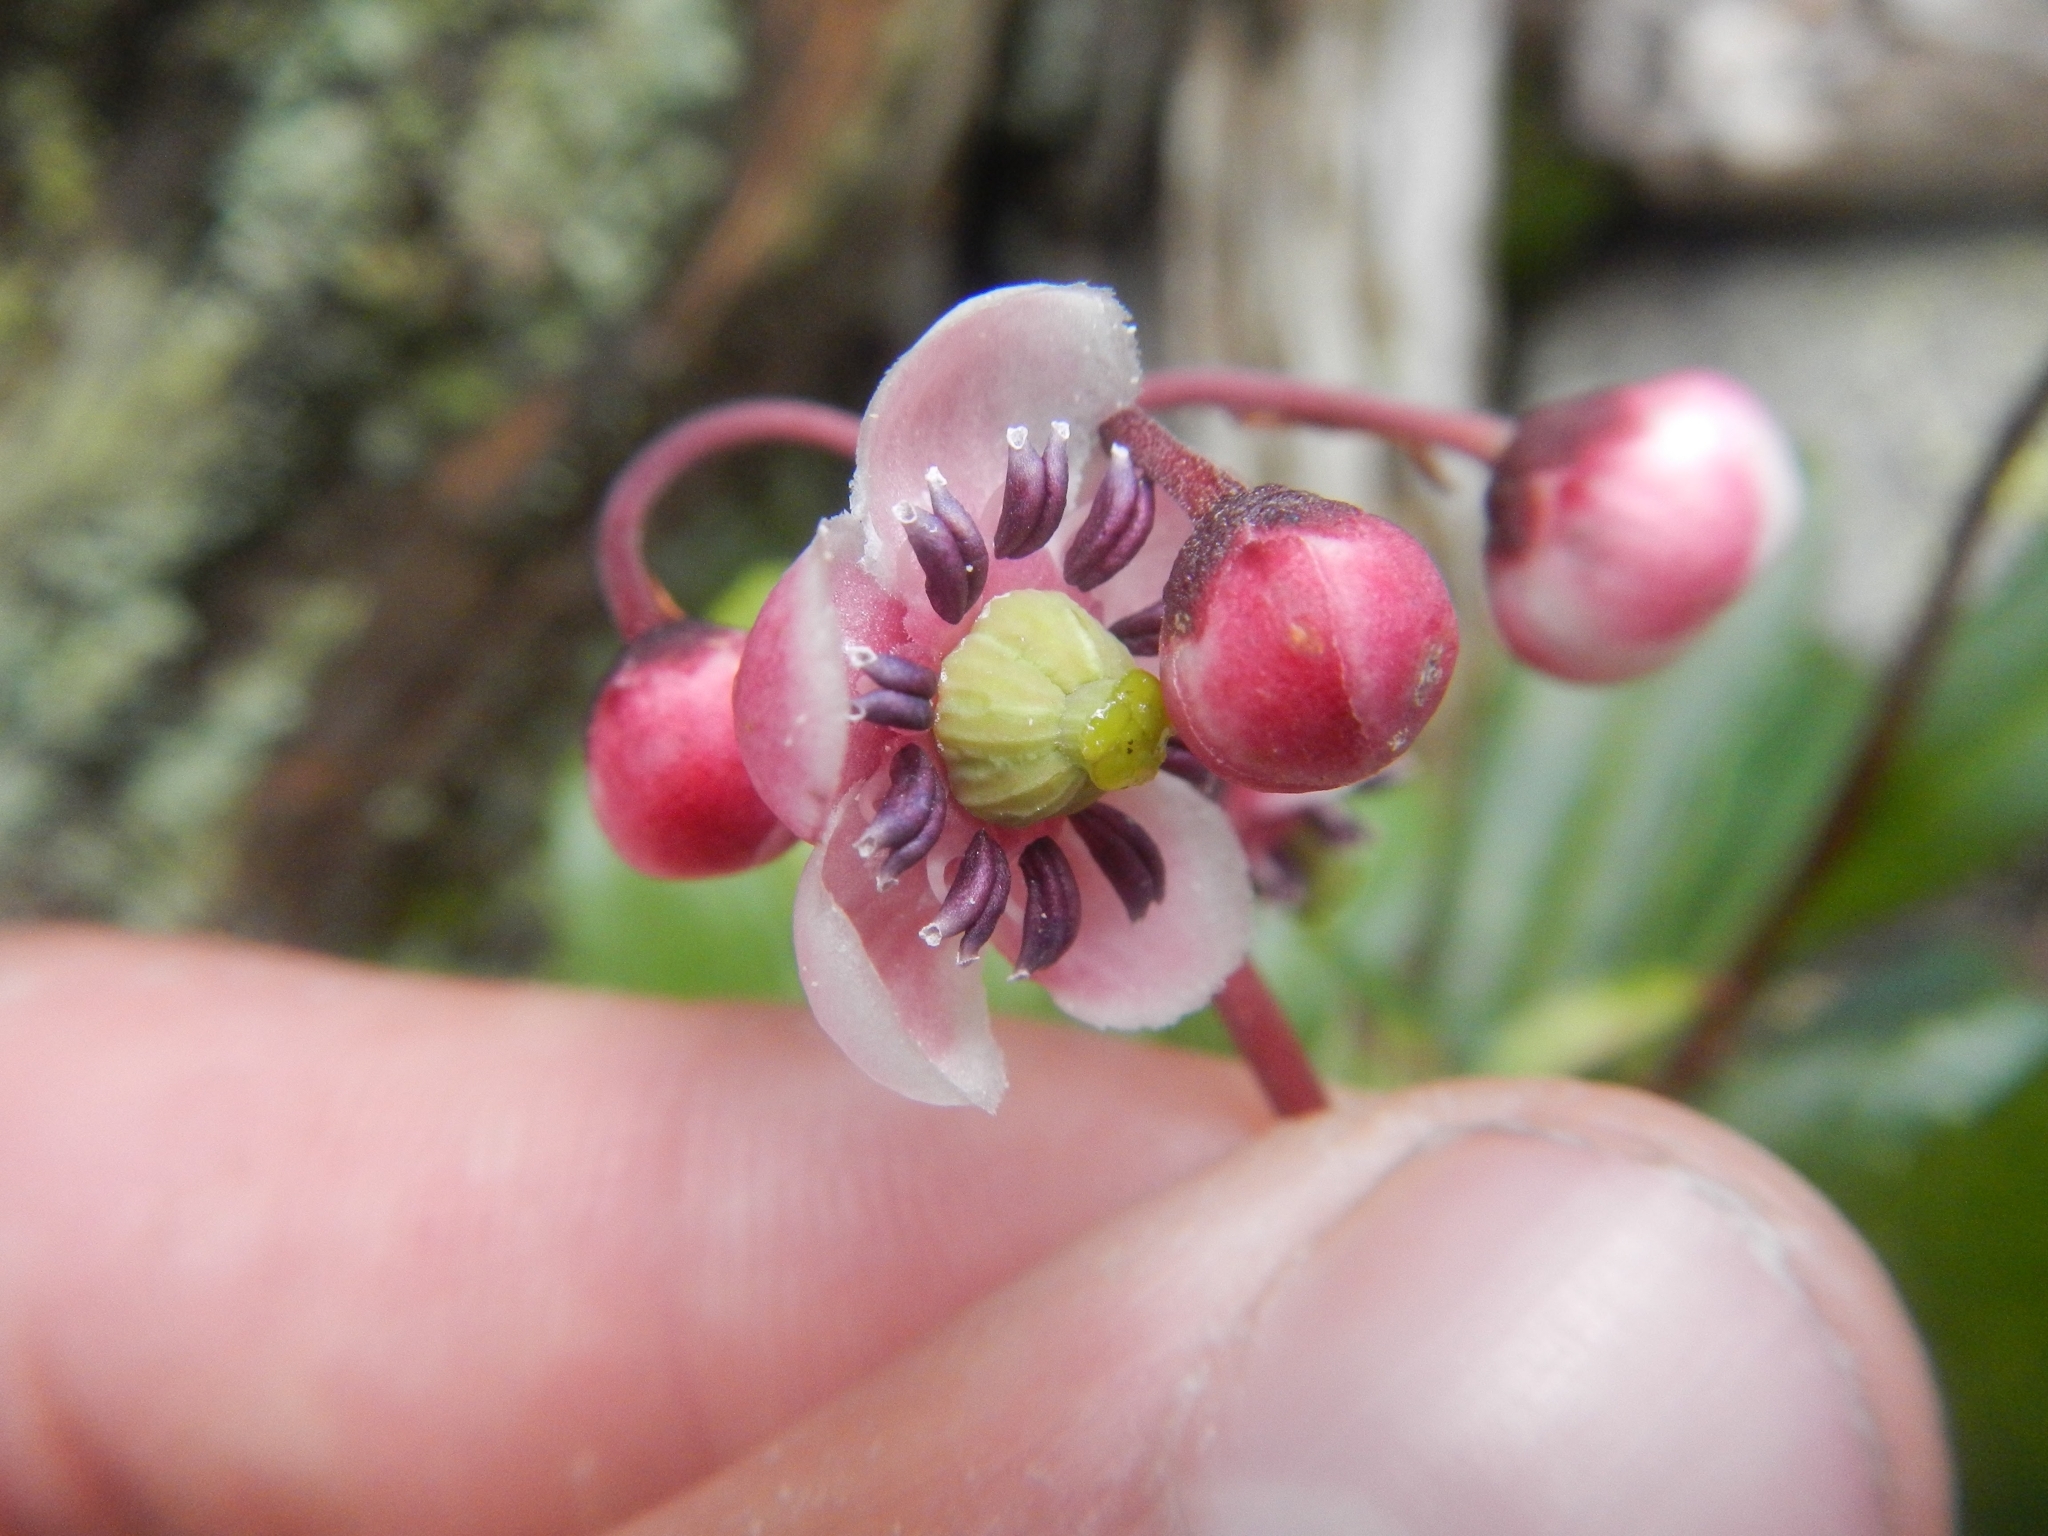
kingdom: Plantae
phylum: Tracheophyta
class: Magnoliopsida
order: Ericales
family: Ericaceae
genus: Chimaphila
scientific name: Chimaphila umbellata
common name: Pipsissewa
